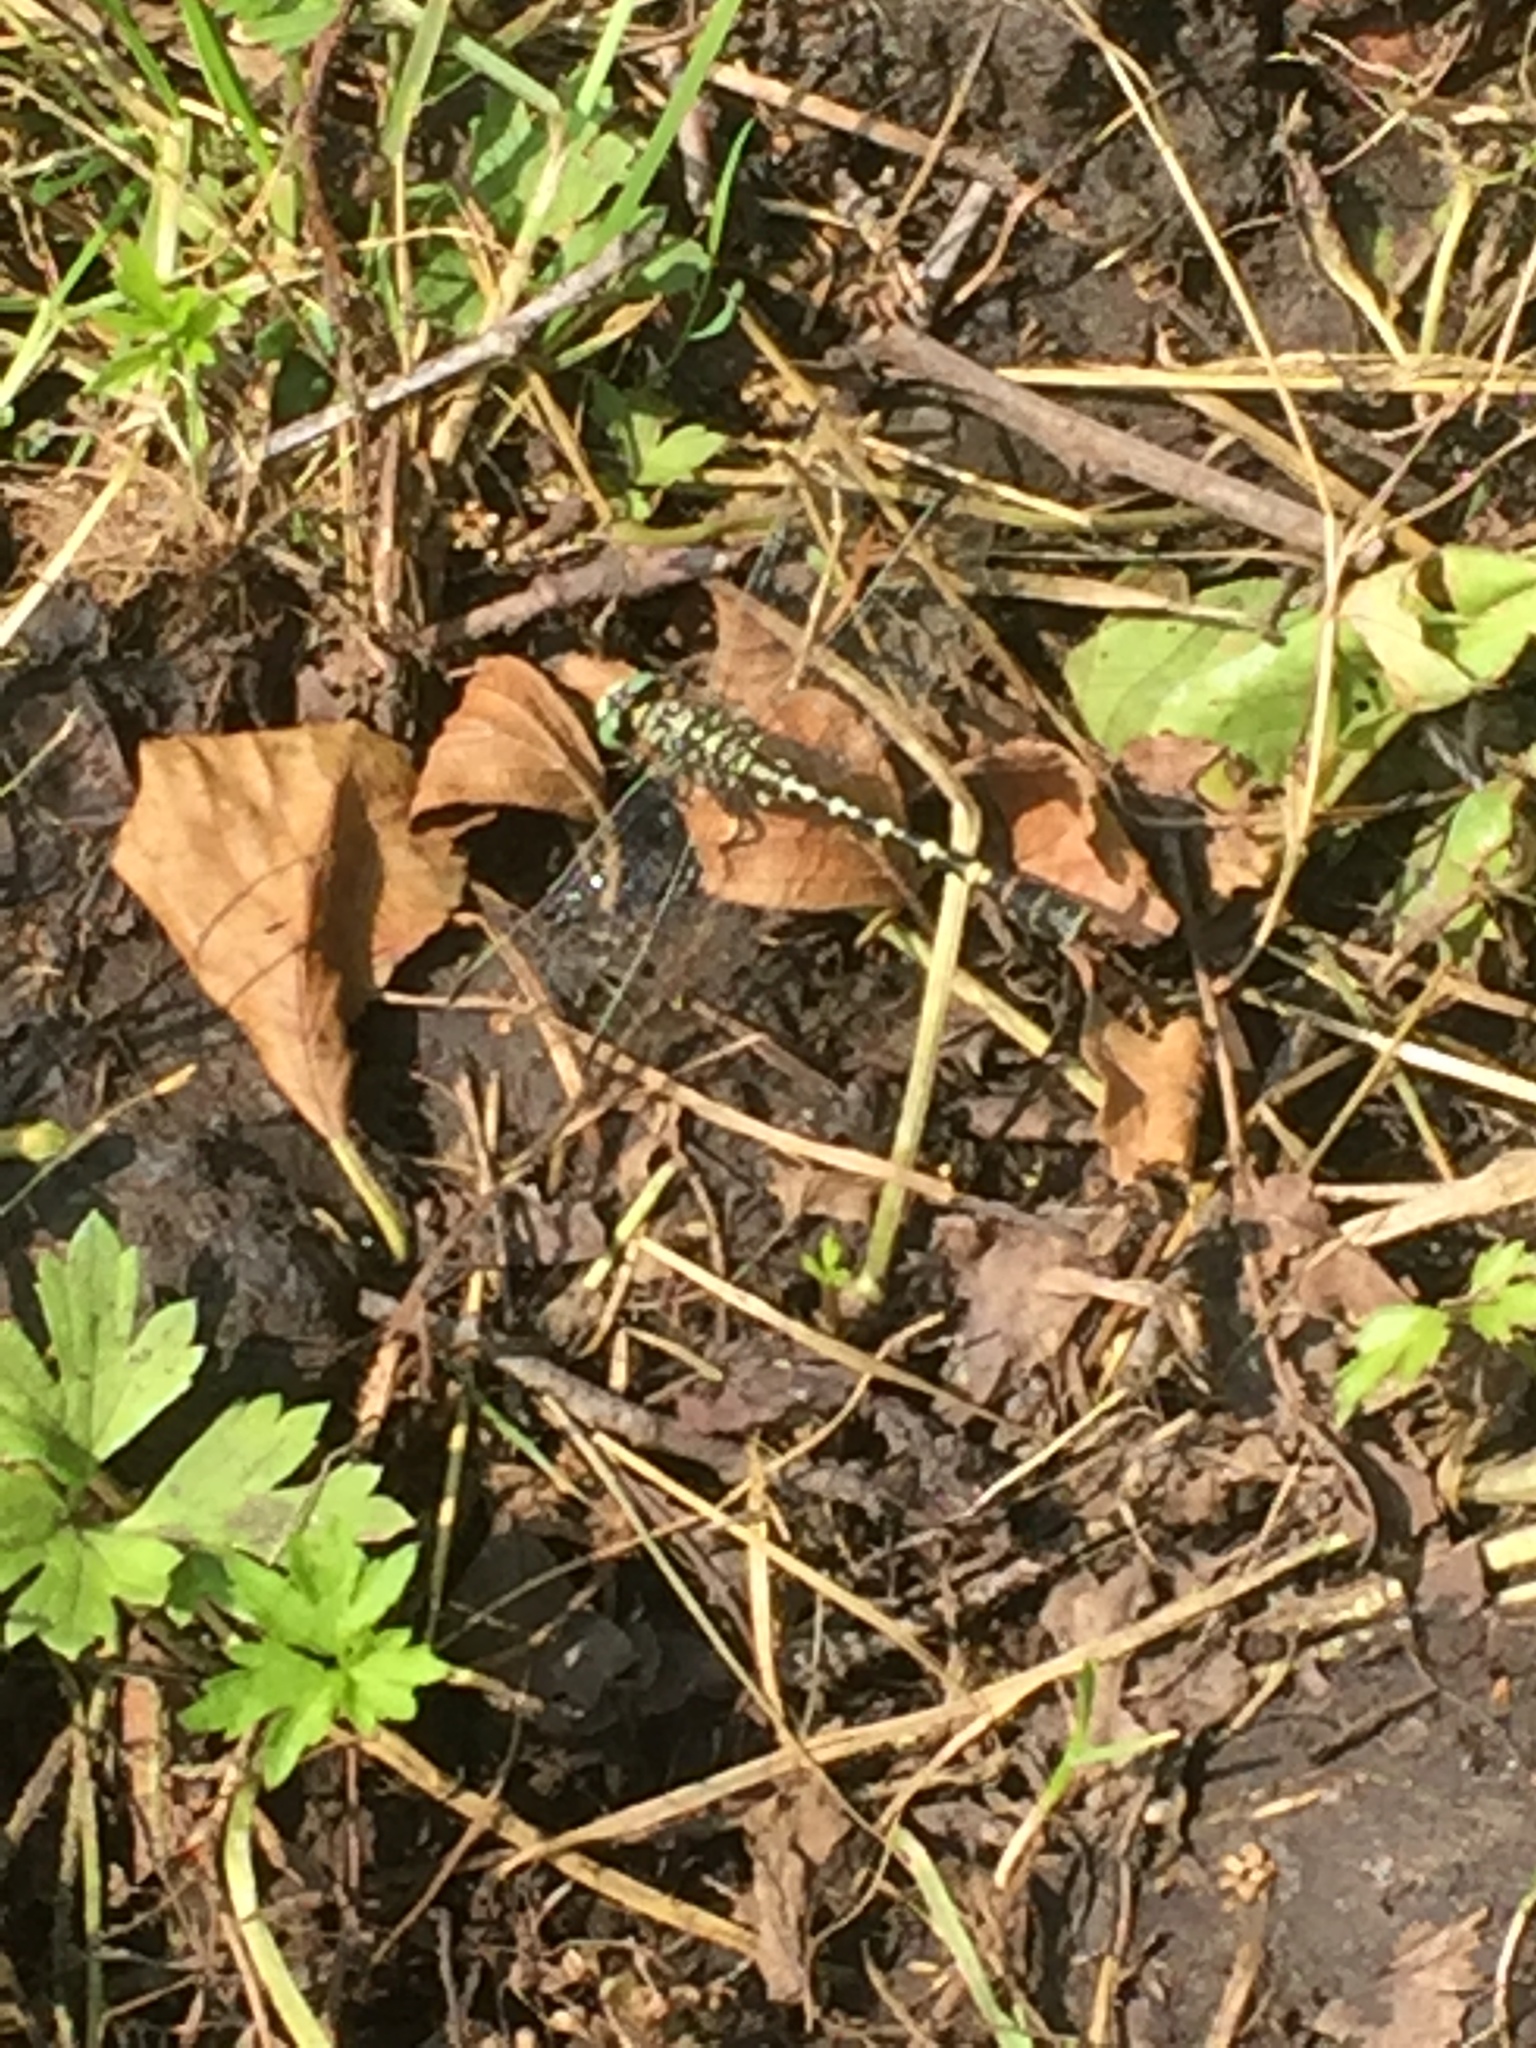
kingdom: Animalia
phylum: Arthropoda
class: Insecta
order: Odonata
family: Gomphidae
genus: Onychogomphus
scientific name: Onychogomphus forcipatus
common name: Small pincertail
